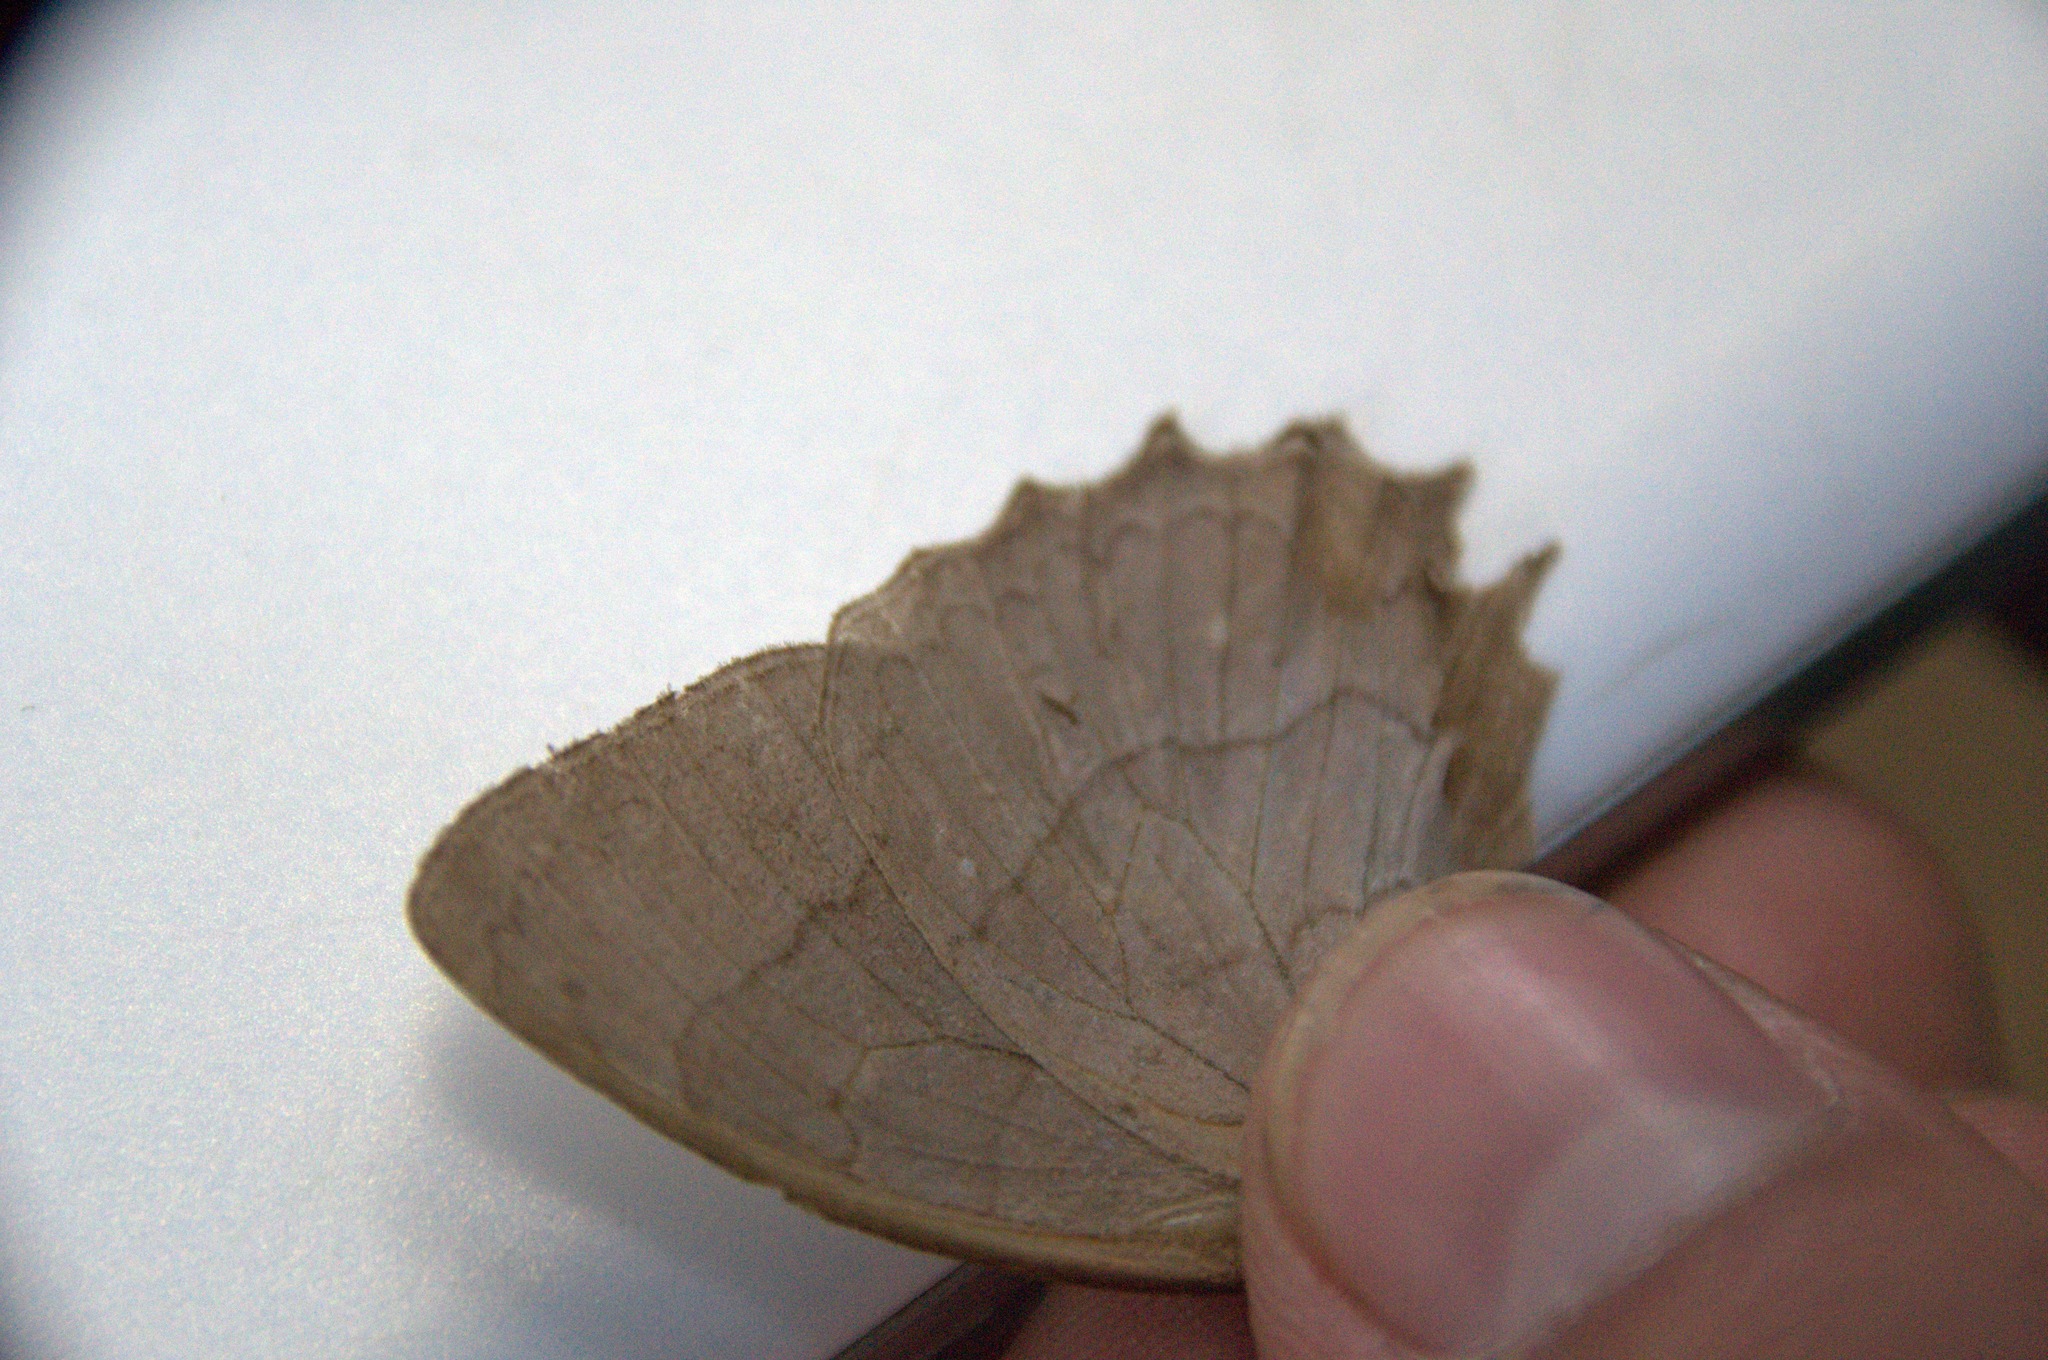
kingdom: Animalia
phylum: Arthropoda
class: Insecta
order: Lepidoptera
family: Nymphalidae
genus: Taygetina
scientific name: Taygetina kerea
